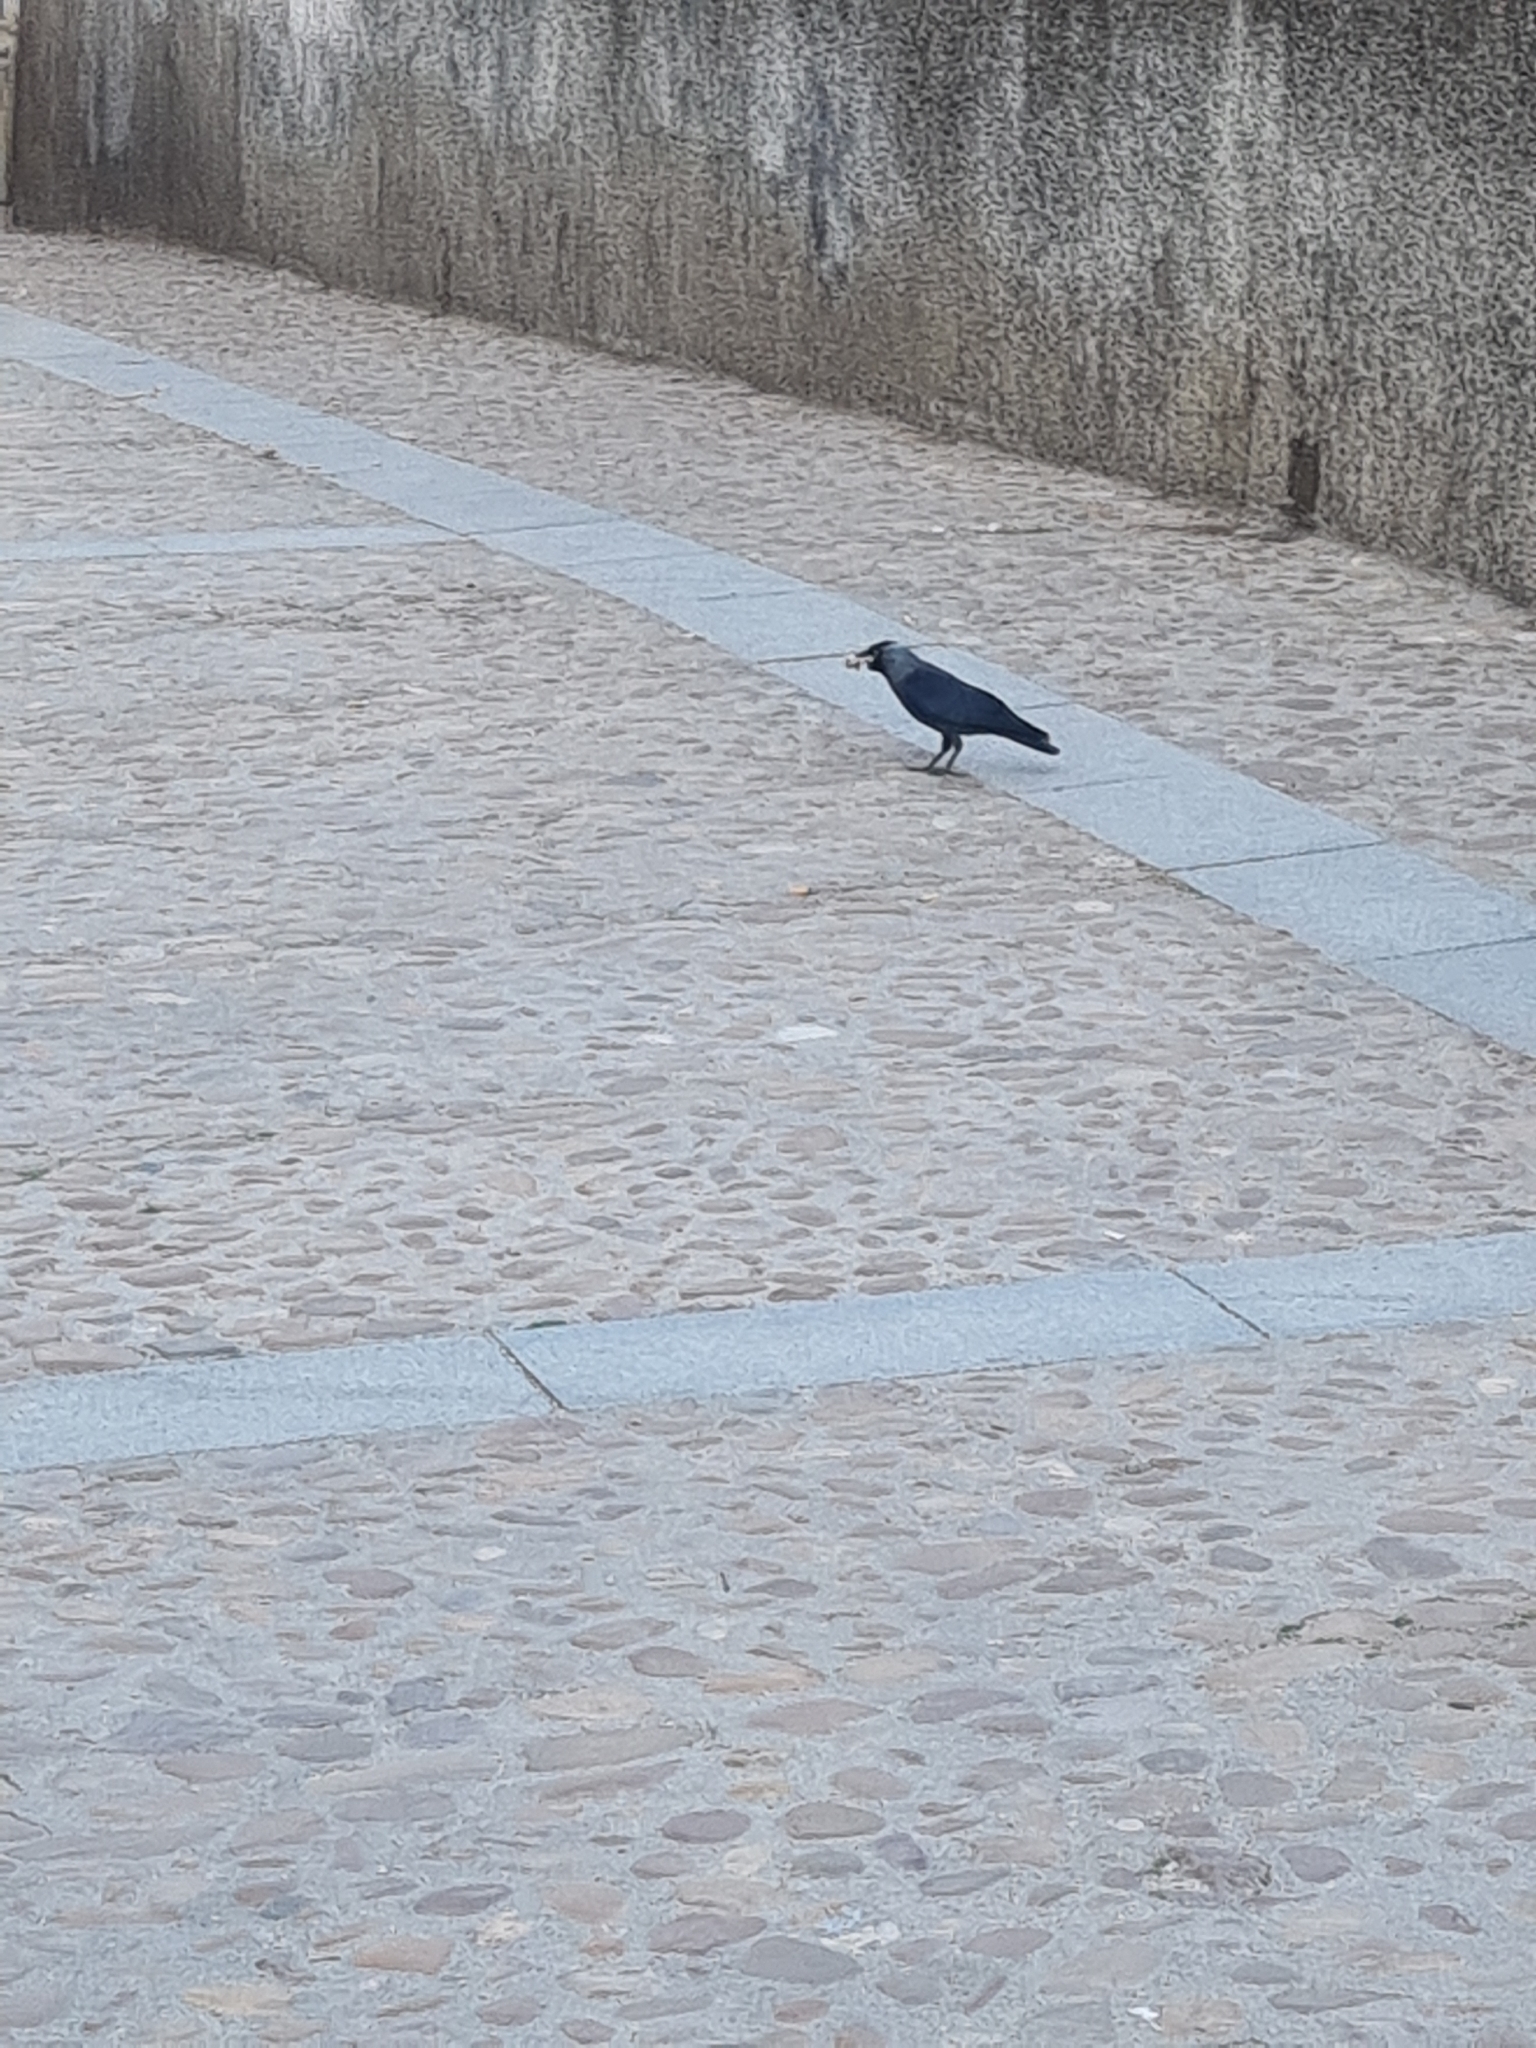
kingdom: Animalia
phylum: Chordata
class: Aves
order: Passeriformes
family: Corvidae
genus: Coloeus
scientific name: Coloeus monedula
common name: Western jackdaw
